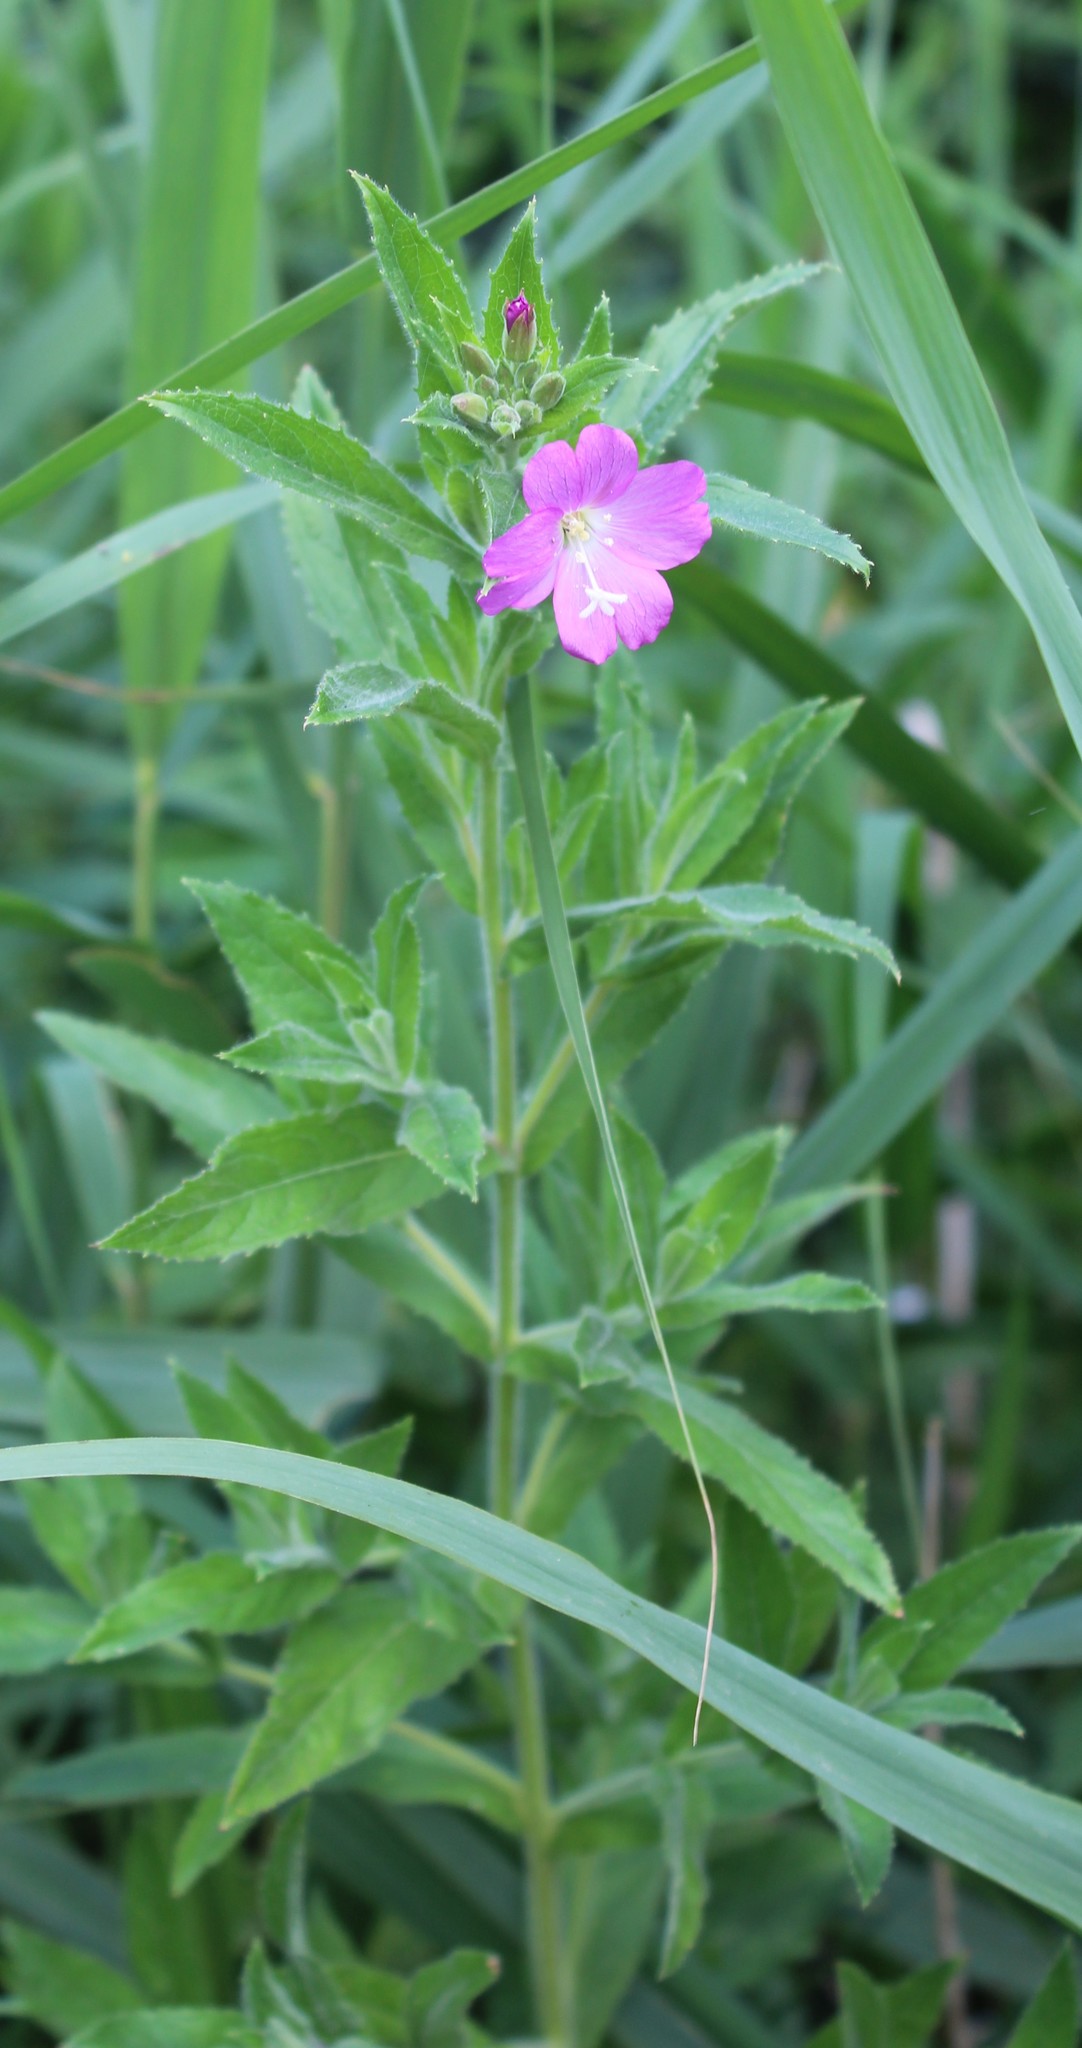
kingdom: Plantae
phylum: Tracheophyta
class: Magnoliopsida
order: Myrtales
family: Onagraceae
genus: Epilobium
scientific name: Epilobium hirsutum
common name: Great willowherb
